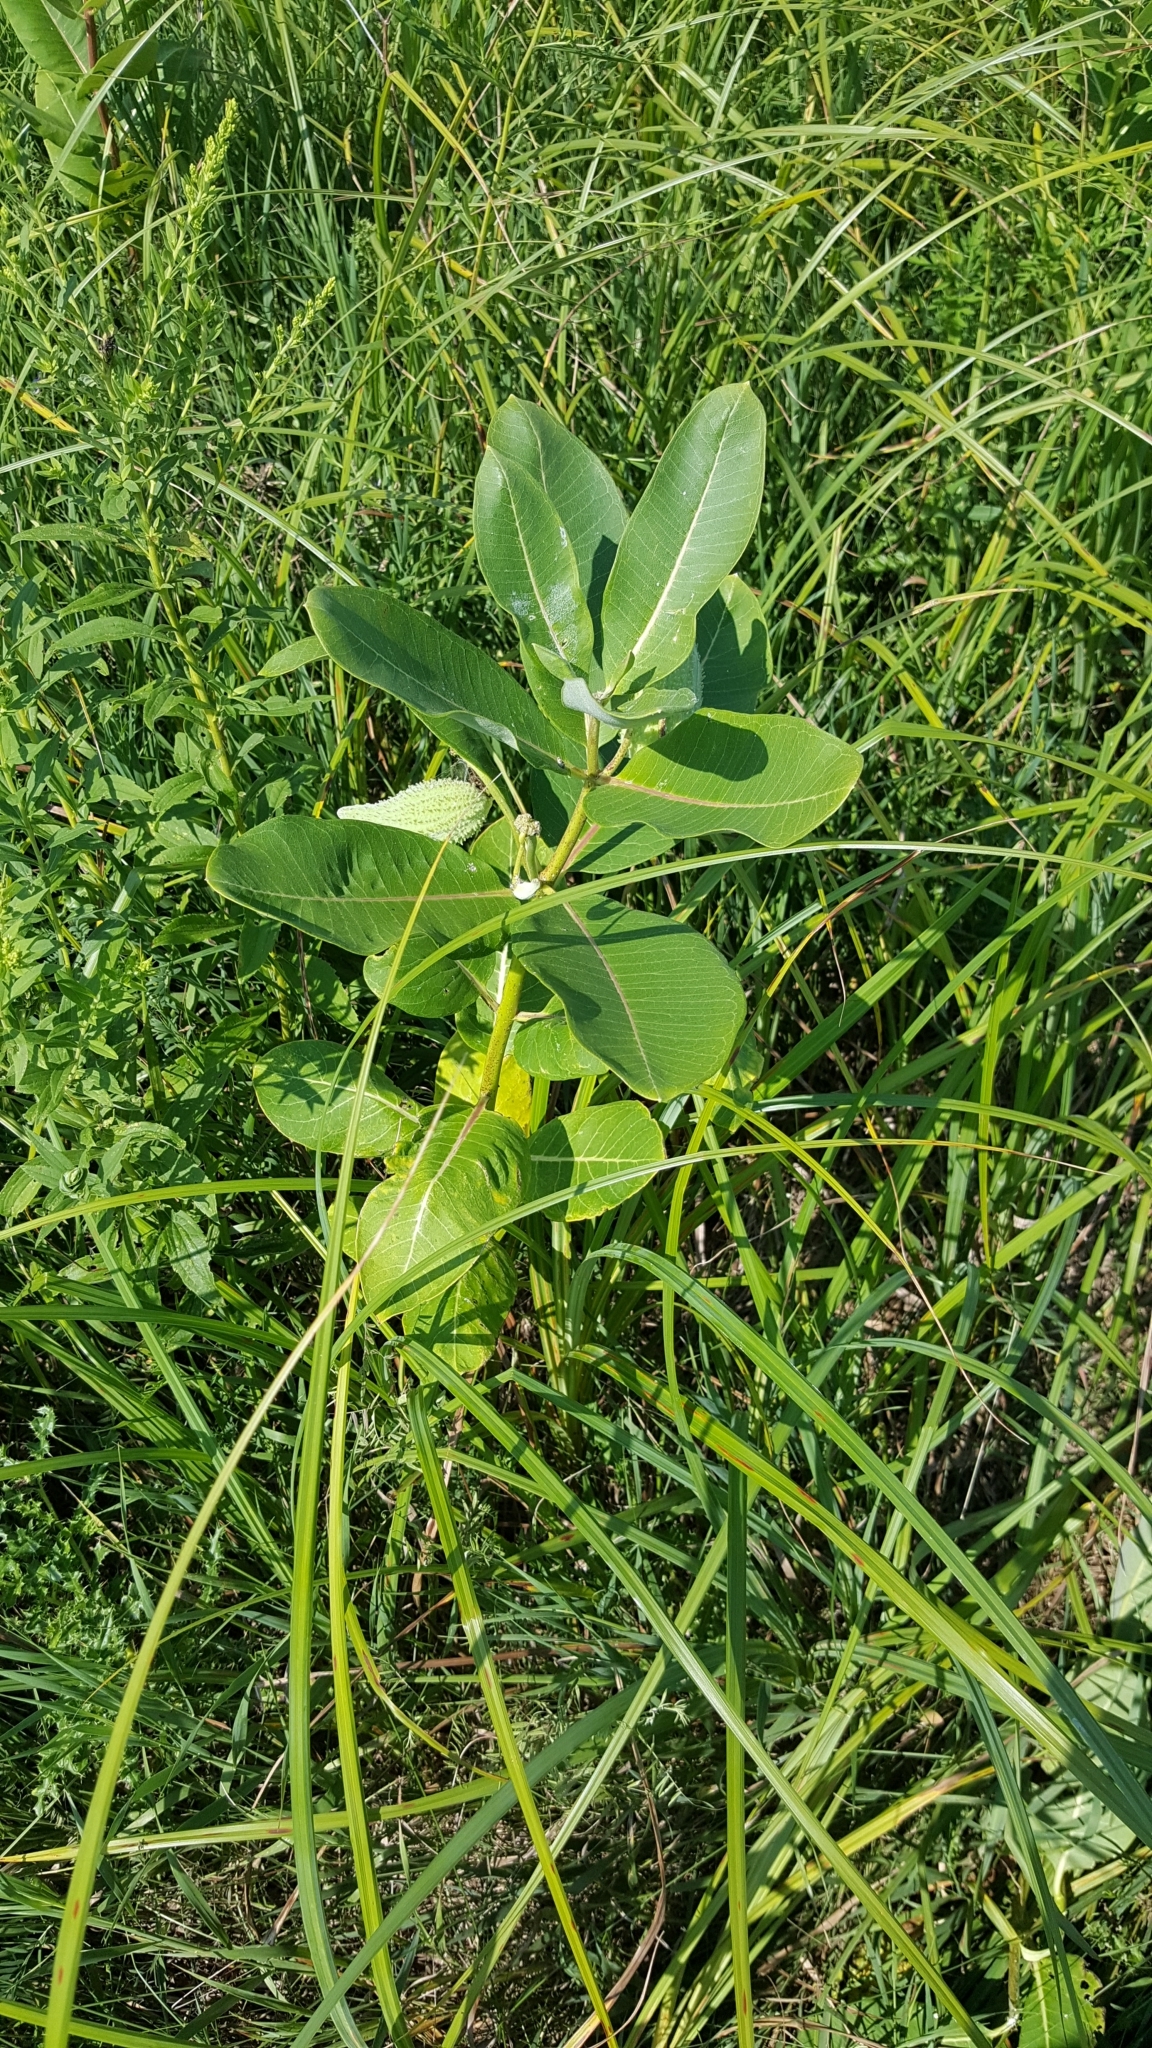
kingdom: Plantae
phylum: Tracheophyta
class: Magnoliopsida
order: Gentianales
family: Apocynaceae
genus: Asclepias
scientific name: Asclepias syriaca
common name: Common milkweed
